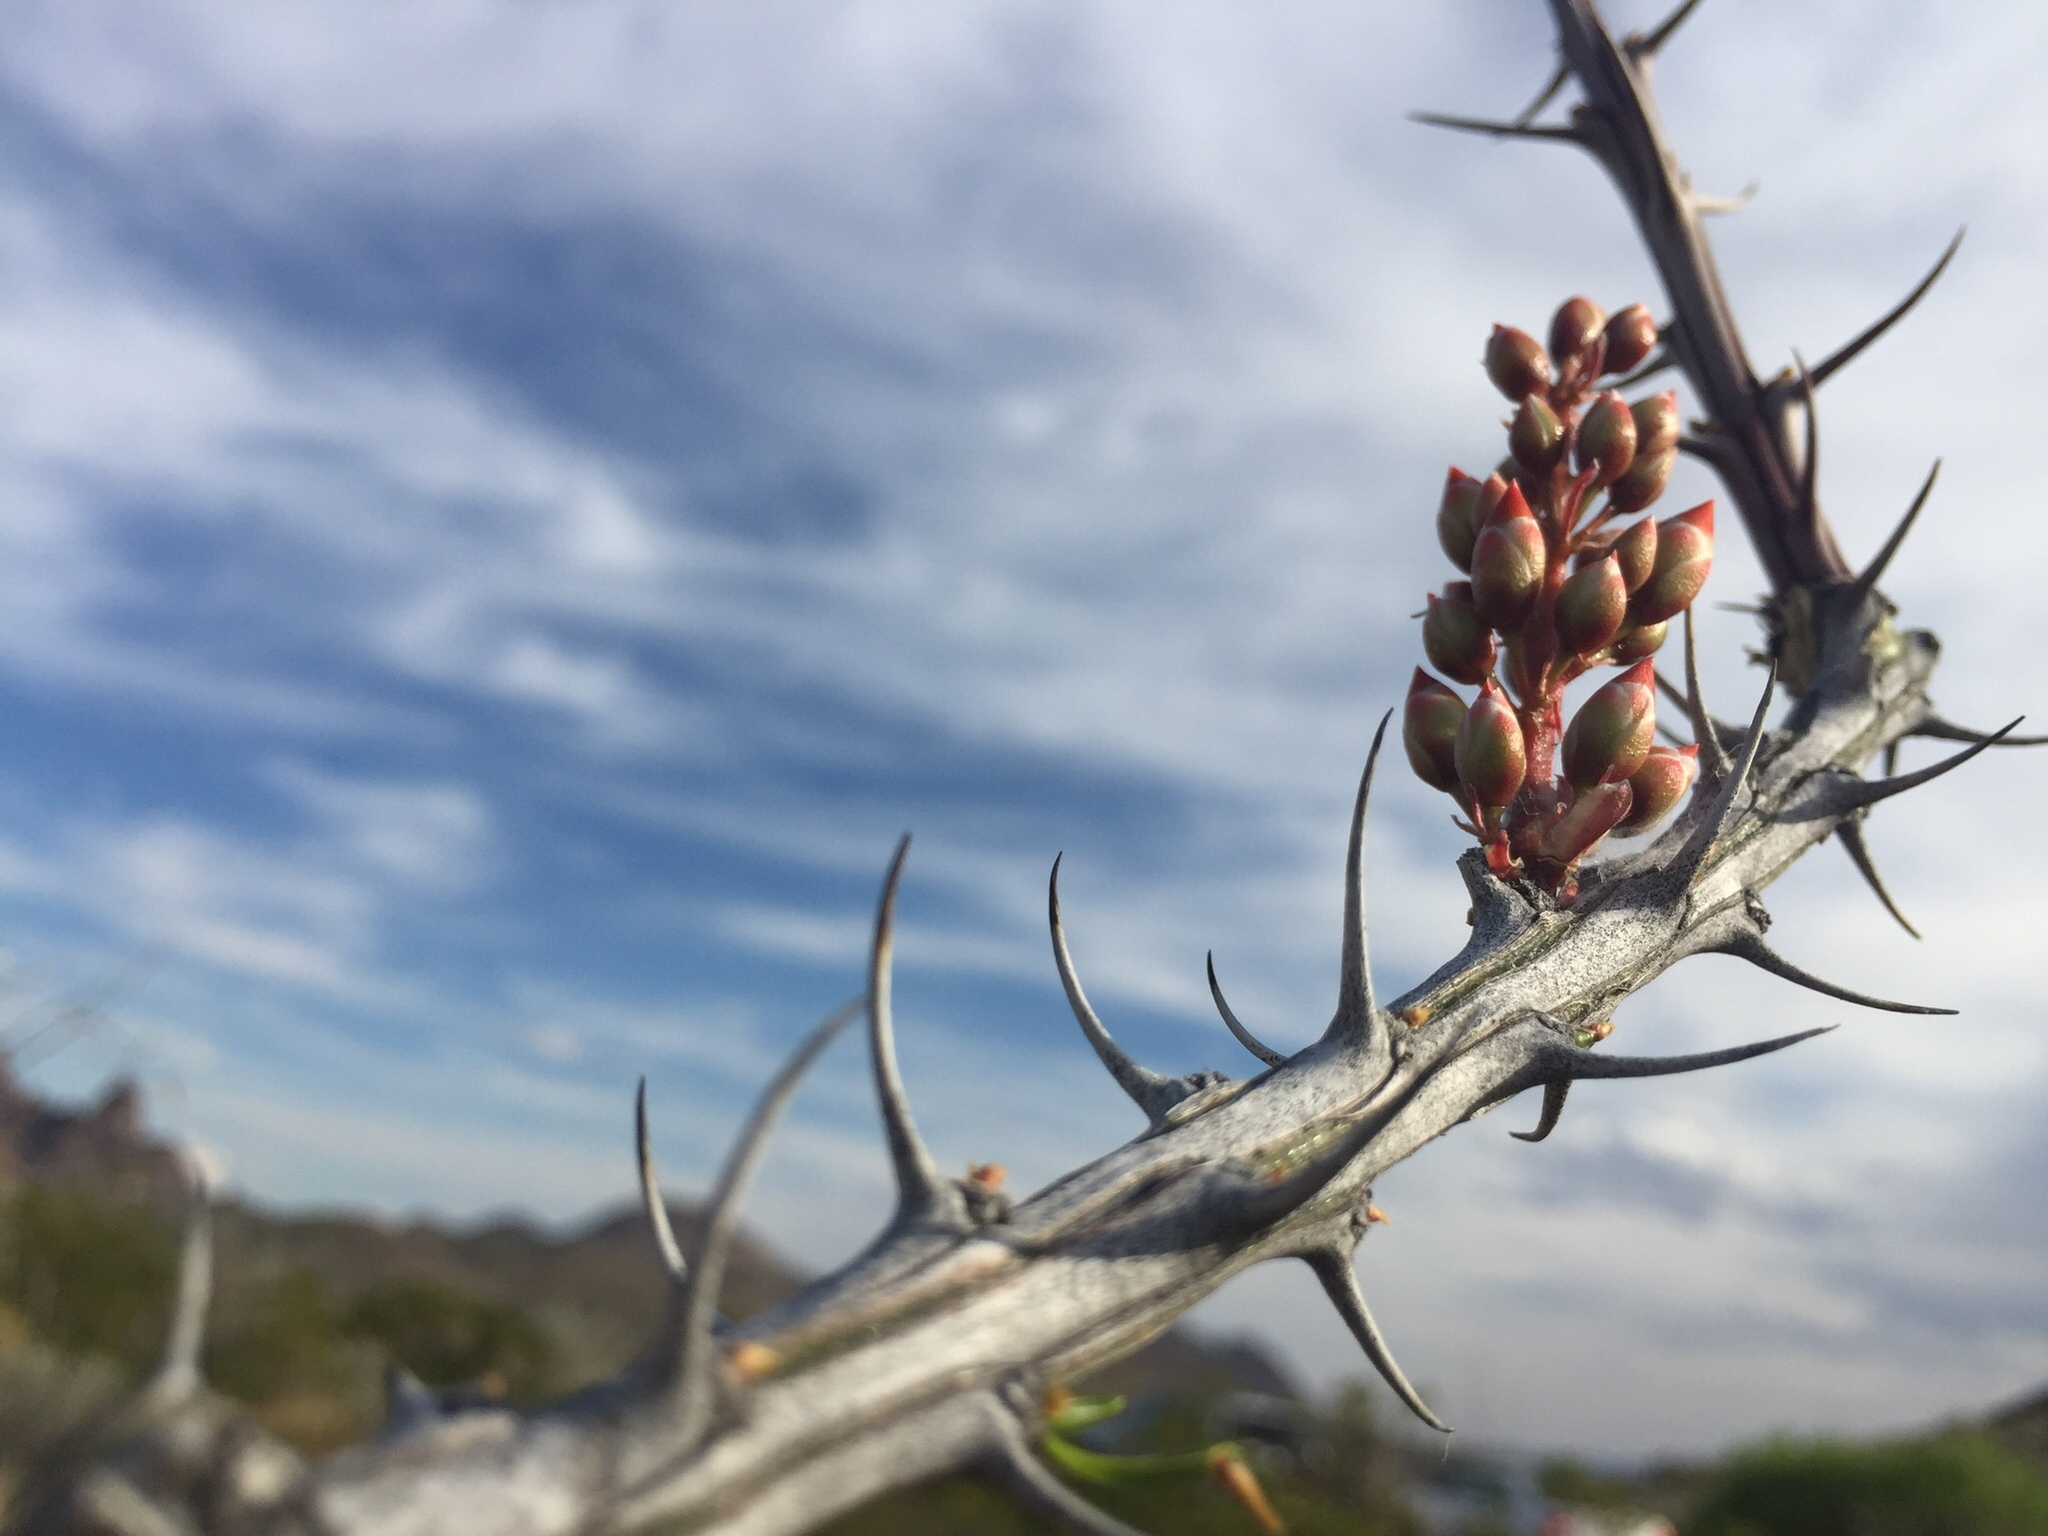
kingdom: Plantae
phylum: Tracheophyta
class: Magnoliopsida
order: Ericales
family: Fouquieriaceae
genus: Fouquieria
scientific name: Fouquieria splendens
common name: Vine-cactus
